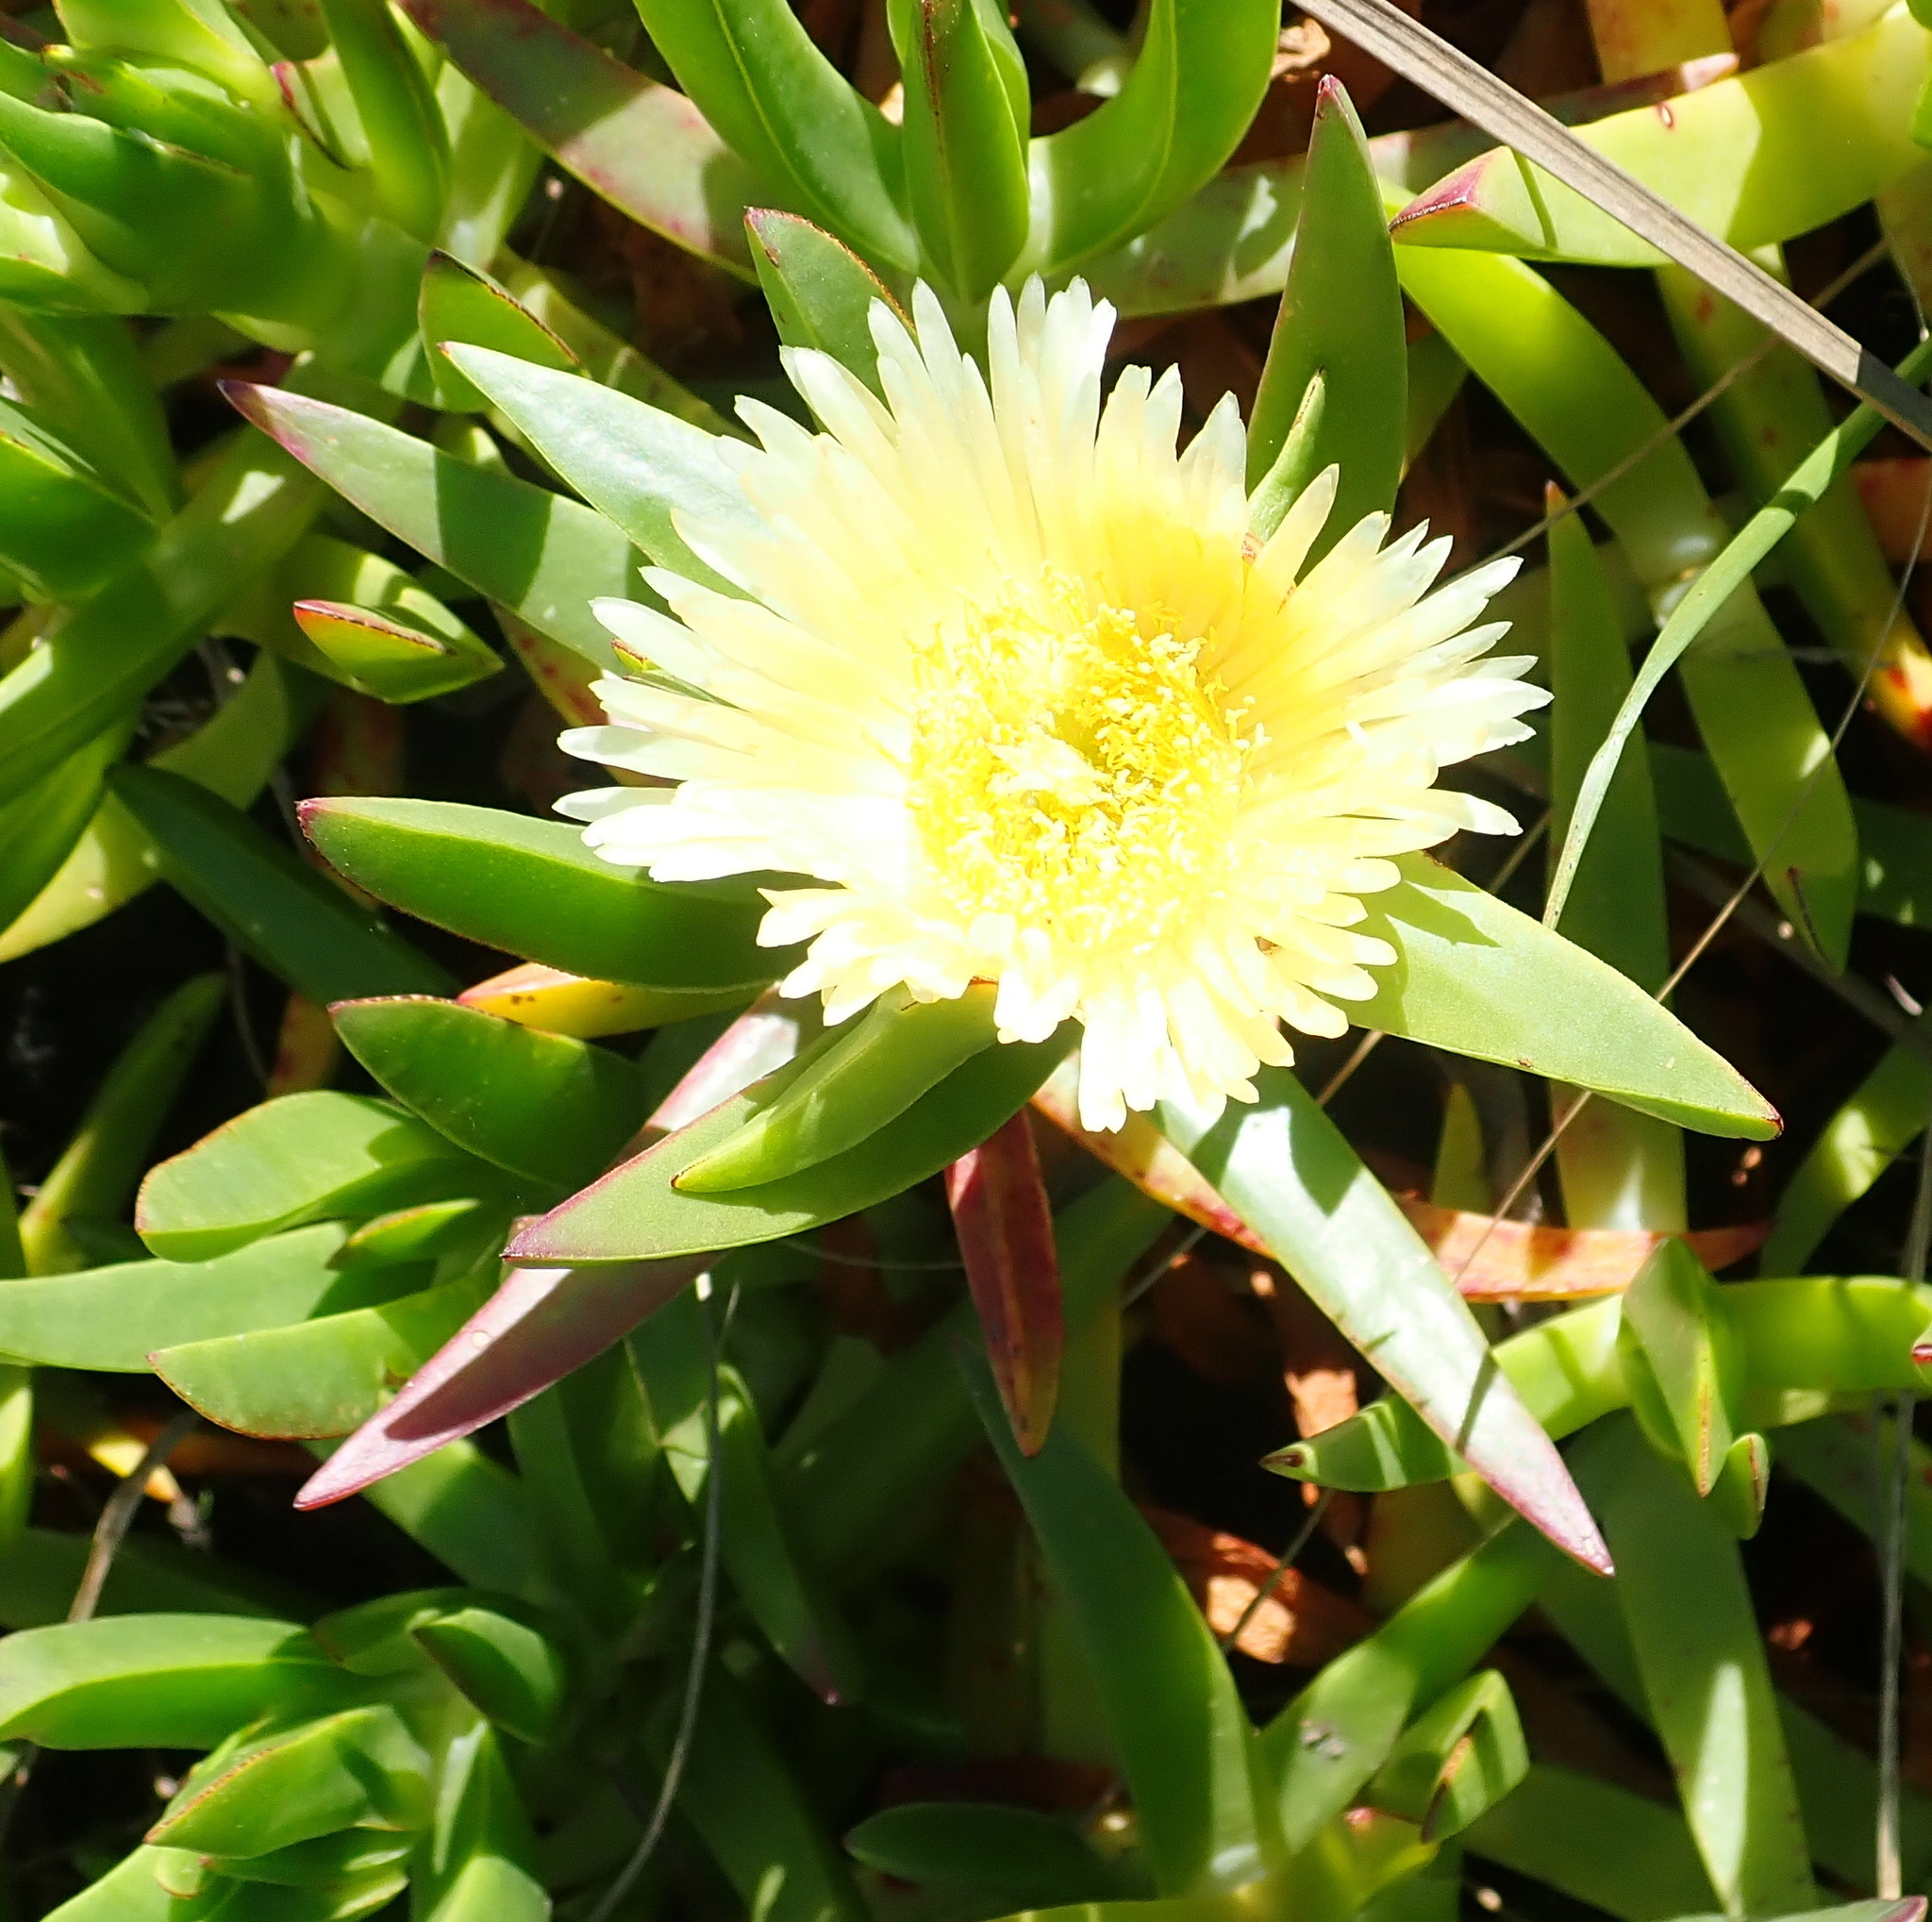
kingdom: Plantae
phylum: Tracheophyta
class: Magnoliopsida
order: Caryophyllales
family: Aizoaceae
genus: Carpobrotus
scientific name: Carpobrotus edulis
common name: Hottentot-fig
